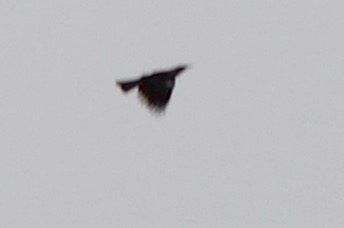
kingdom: Animalia
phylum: Chordata
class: Aves
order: Passeriformes
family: Meliphagidae
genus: Prosthemadera
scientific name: Prosthemadera novaeseelandiae
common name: Tui
